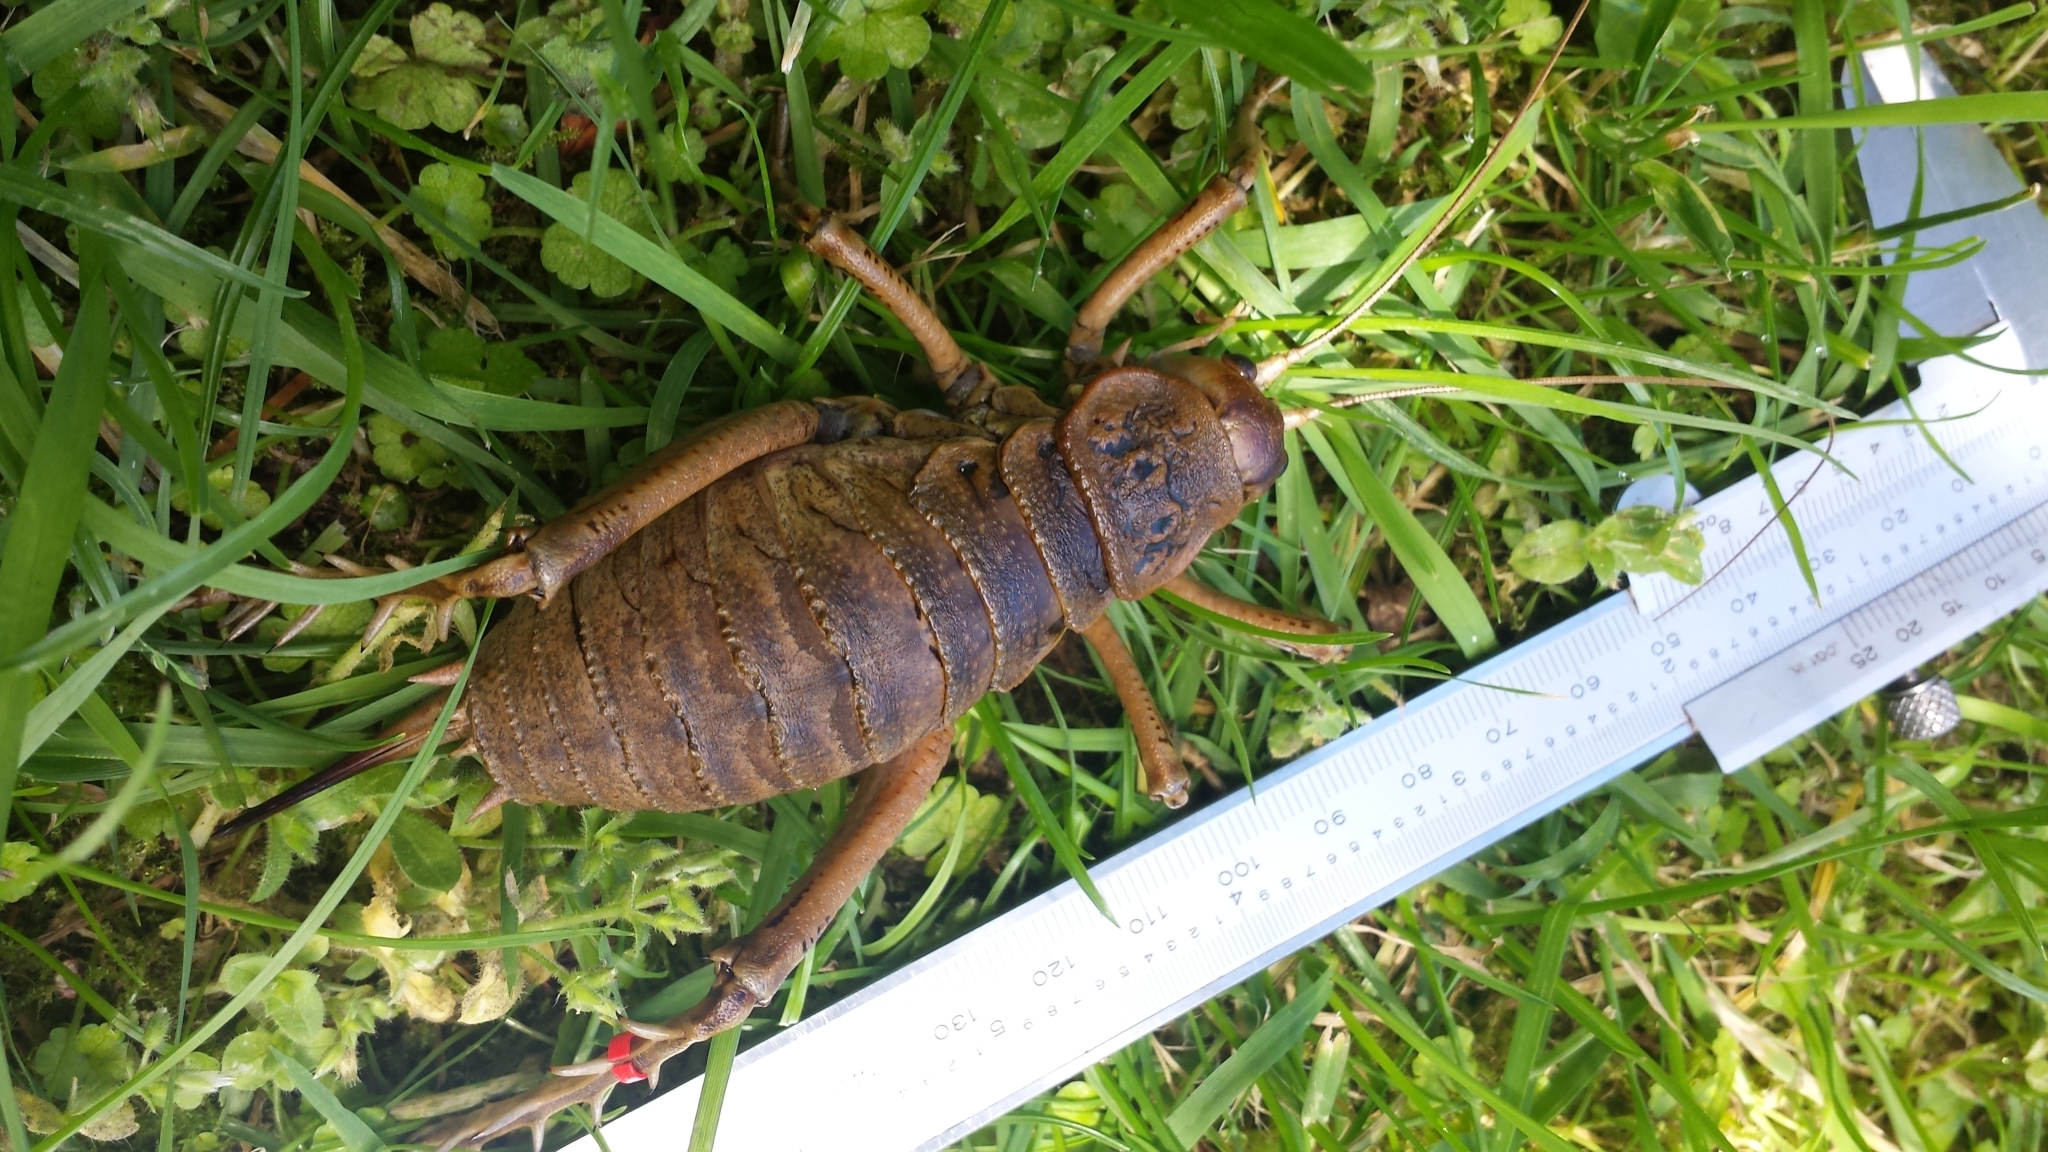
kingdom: Animalia
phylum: Arthropoda
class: Insecta
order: Orthoptera
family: Anostostomatidae
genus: Deinacrida
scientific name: Deinacrida rugosa
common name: Stephens island weta
